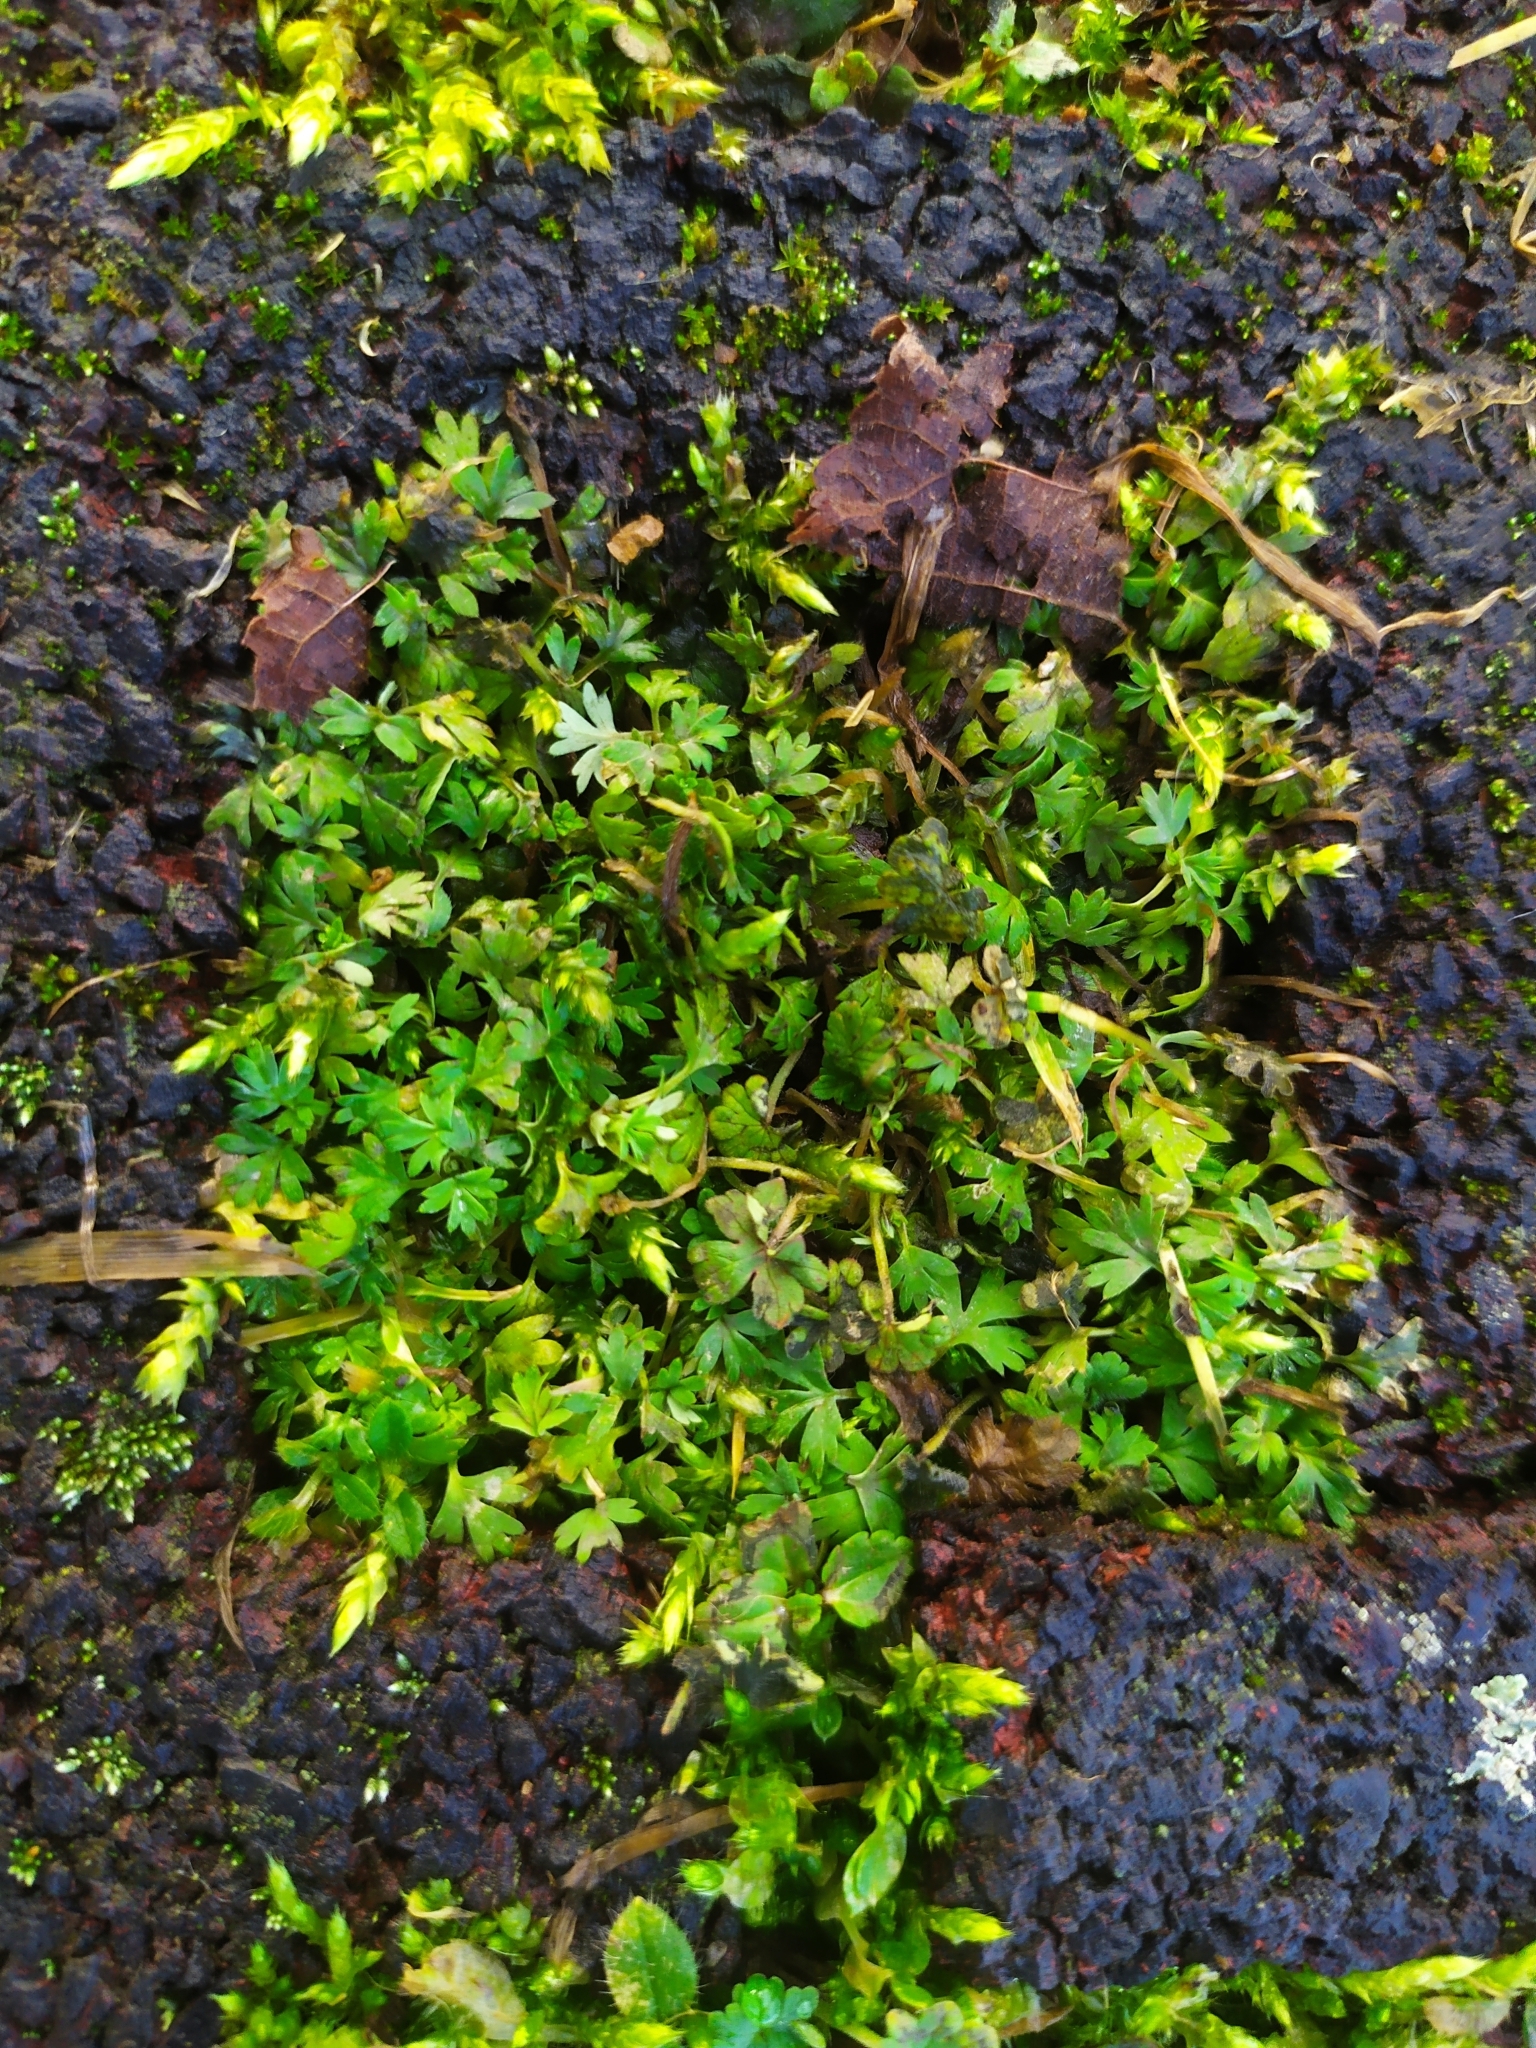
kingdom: Plantae
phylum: Tracheophyta
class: Magnoliopsida
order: Rosales
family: Rosaceae
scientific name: Rosaceae
